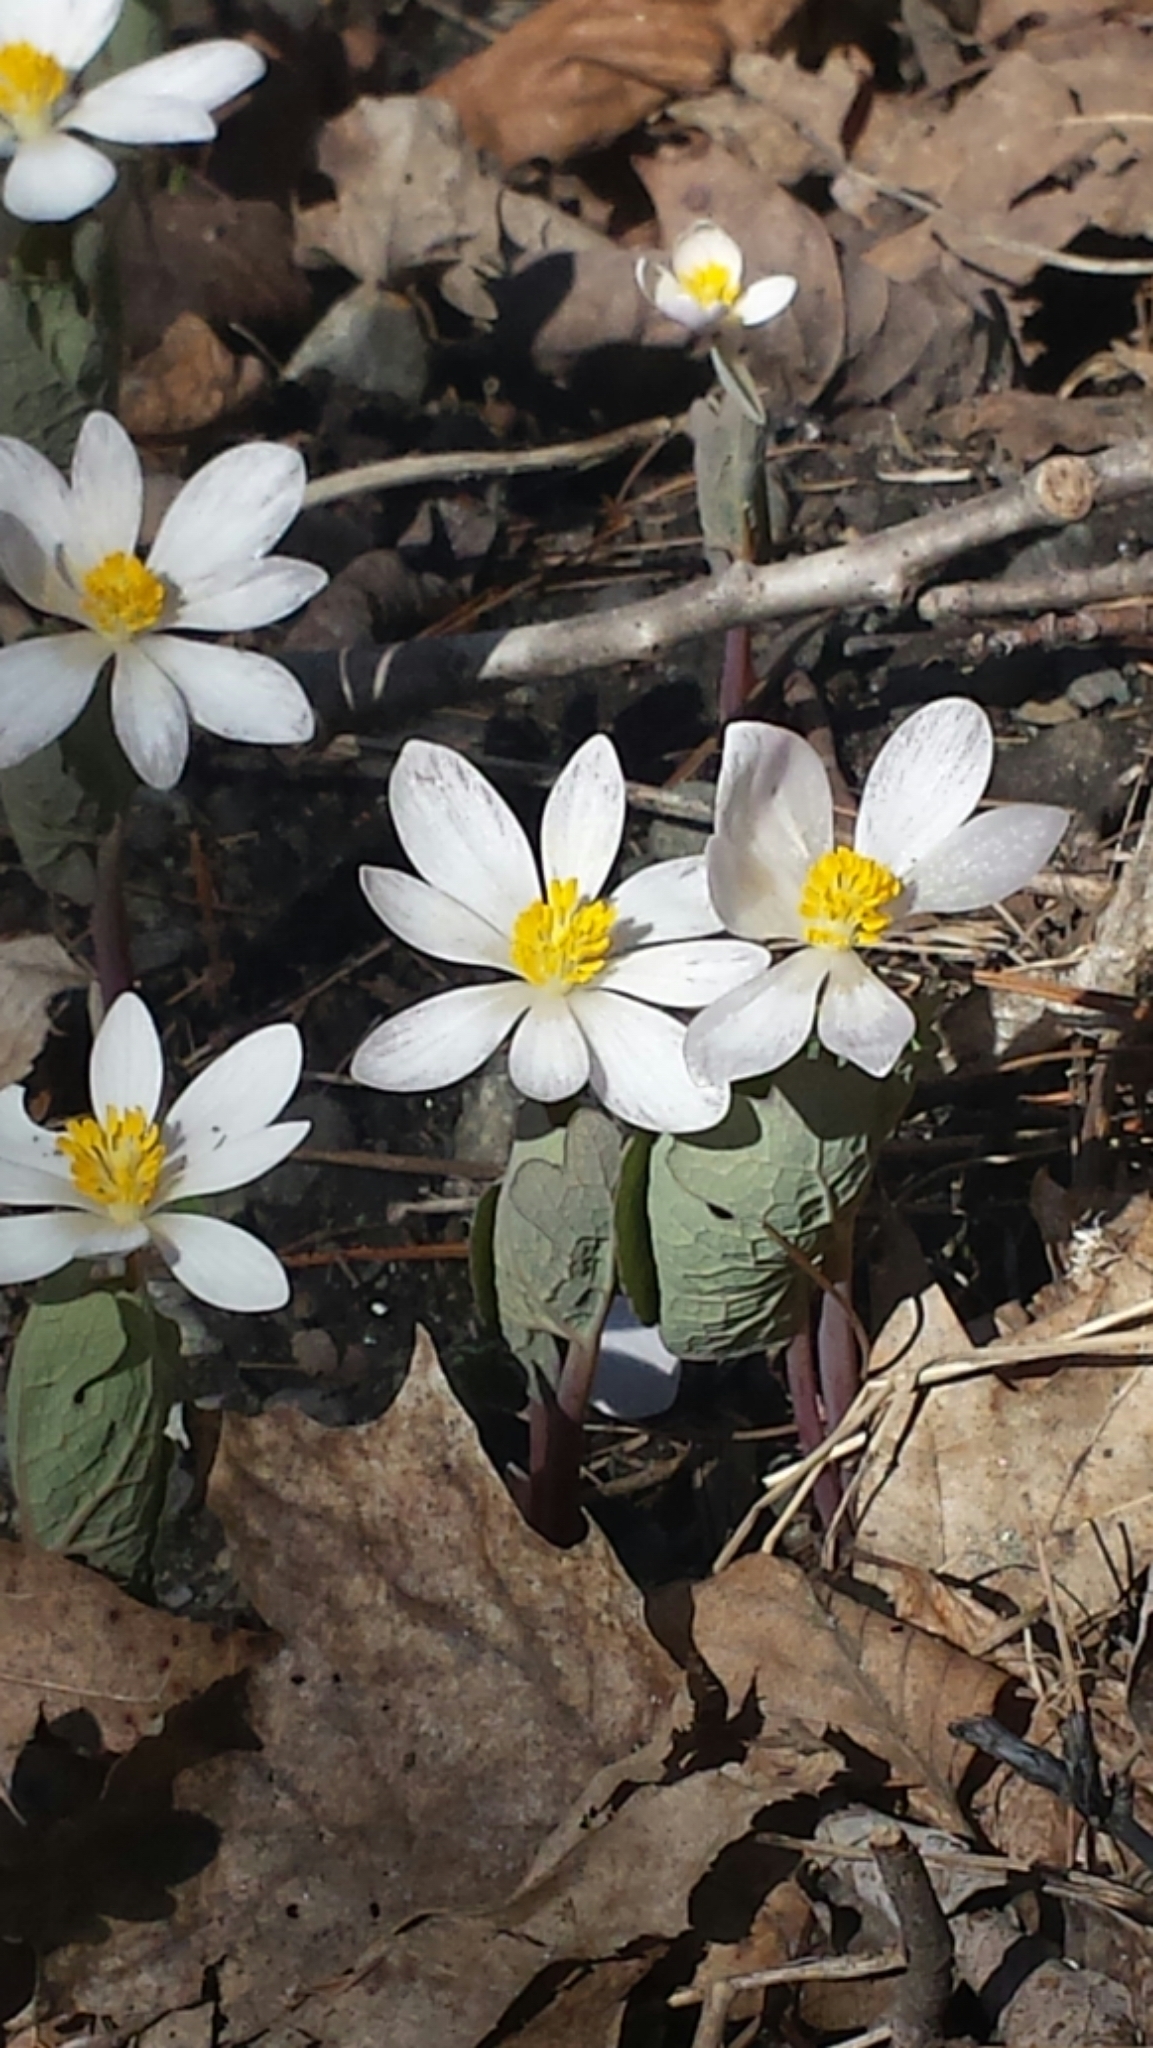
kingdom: Plantae
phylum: Tracheophyta
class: Magnoliopsida
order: Ranunculales
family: Papaveraceae
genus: Sanguinaria
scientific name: Sanguinaria canadensis
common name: Bloodroot
